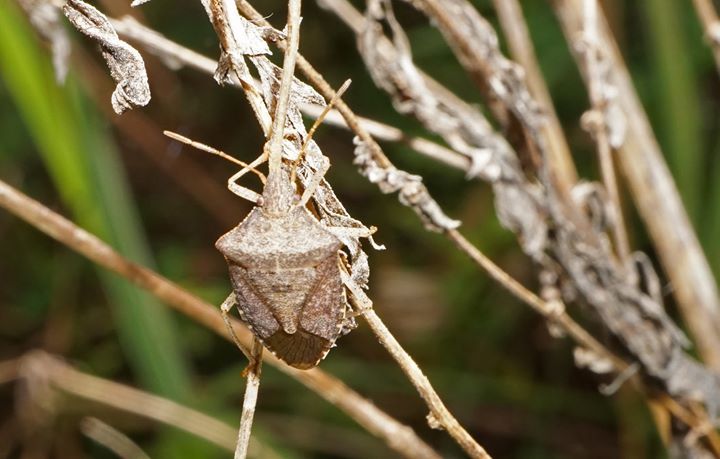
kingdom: Animalia
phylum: Arthropoda
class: Insecta
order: Hemiptera
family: Pentatomidae
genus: Euschistus
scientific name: Euschistus tristigmus
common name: Dusky stink bug
